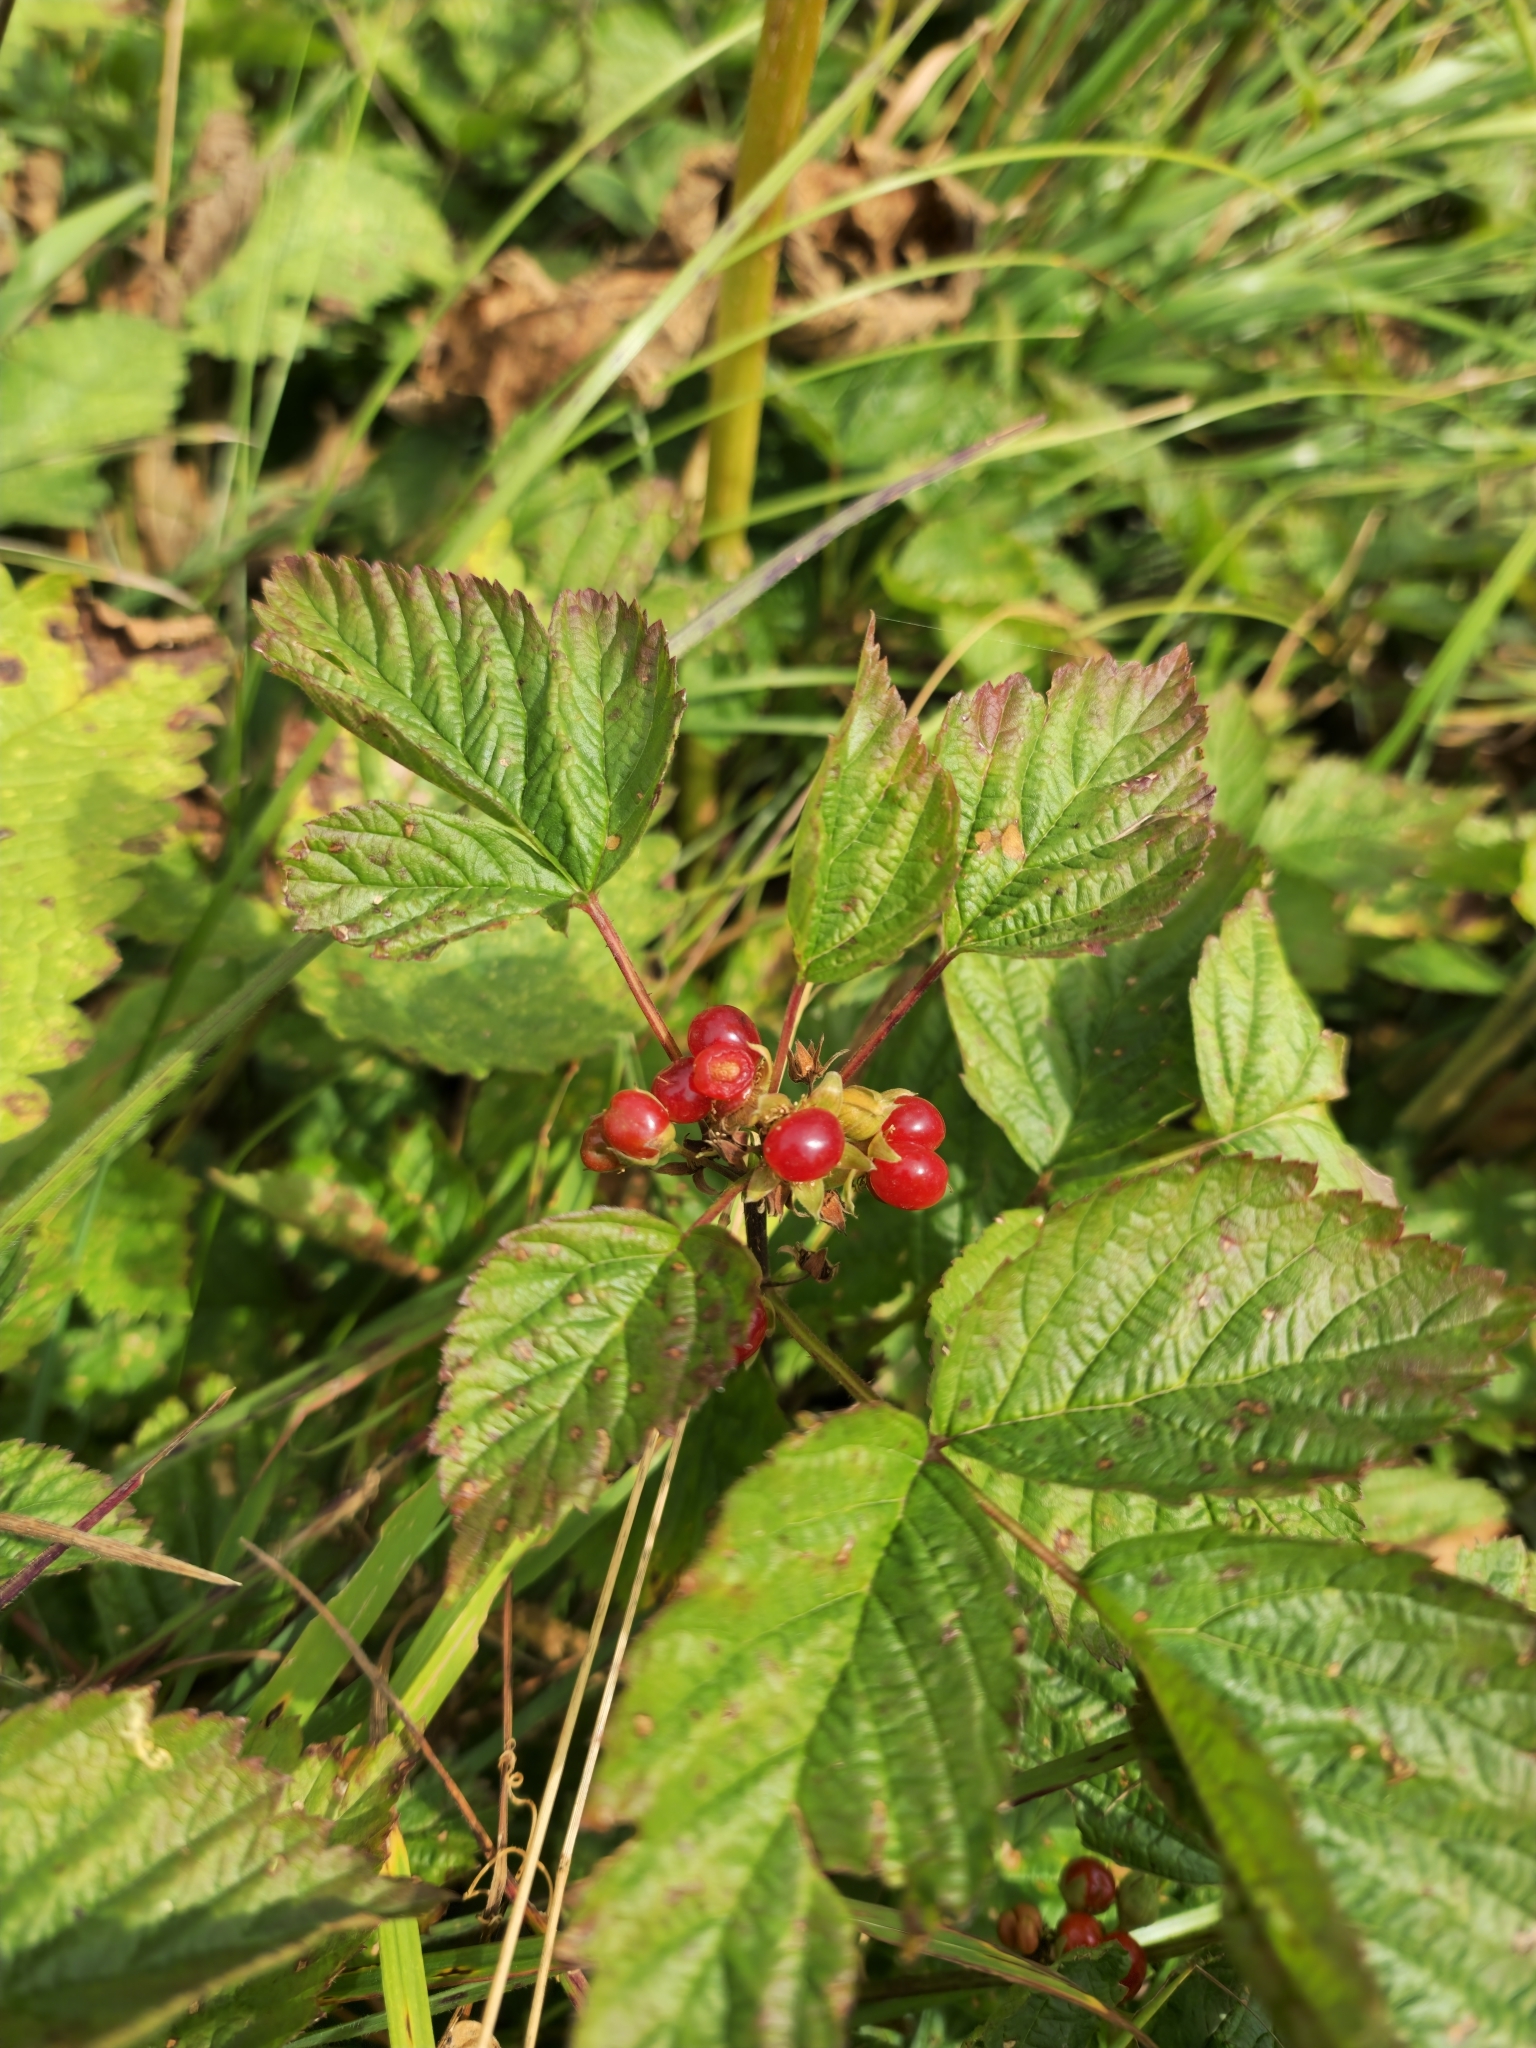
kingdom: Plantae
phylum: Tracheophyta
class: Magnoliopsida
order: Rosales
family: Rosaceae
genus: Rubus
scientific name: Rubus saxatilis
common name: Stone bramble
